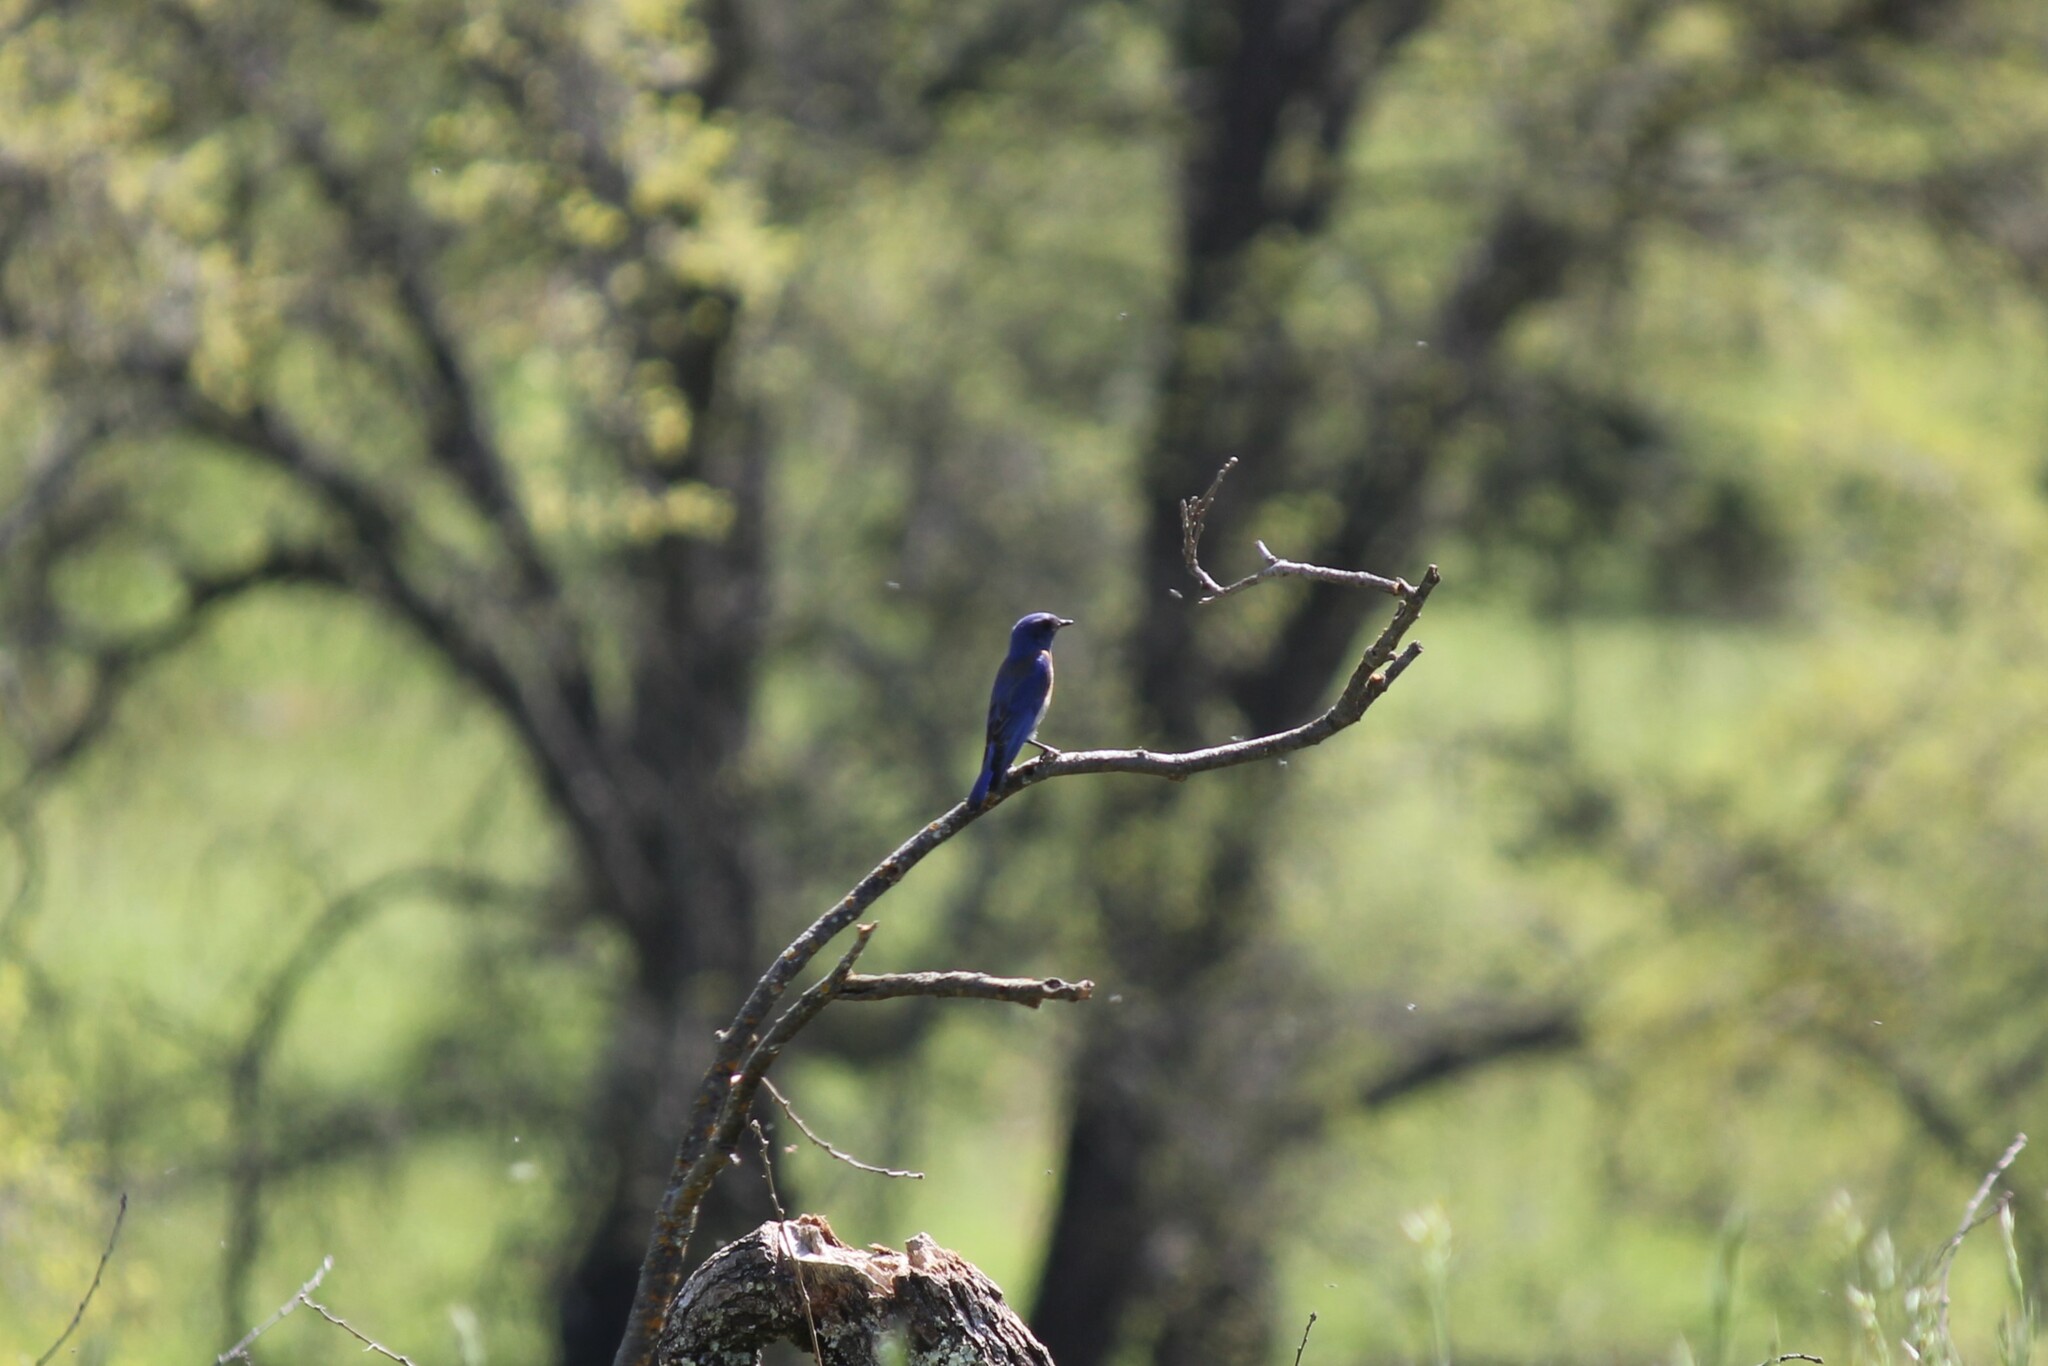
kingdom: Animalia
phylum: Chordata
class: Aves
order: Passeriformes
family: Turdidae
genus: Sialia
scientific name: Sialia mexicana
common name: Western bluebird
